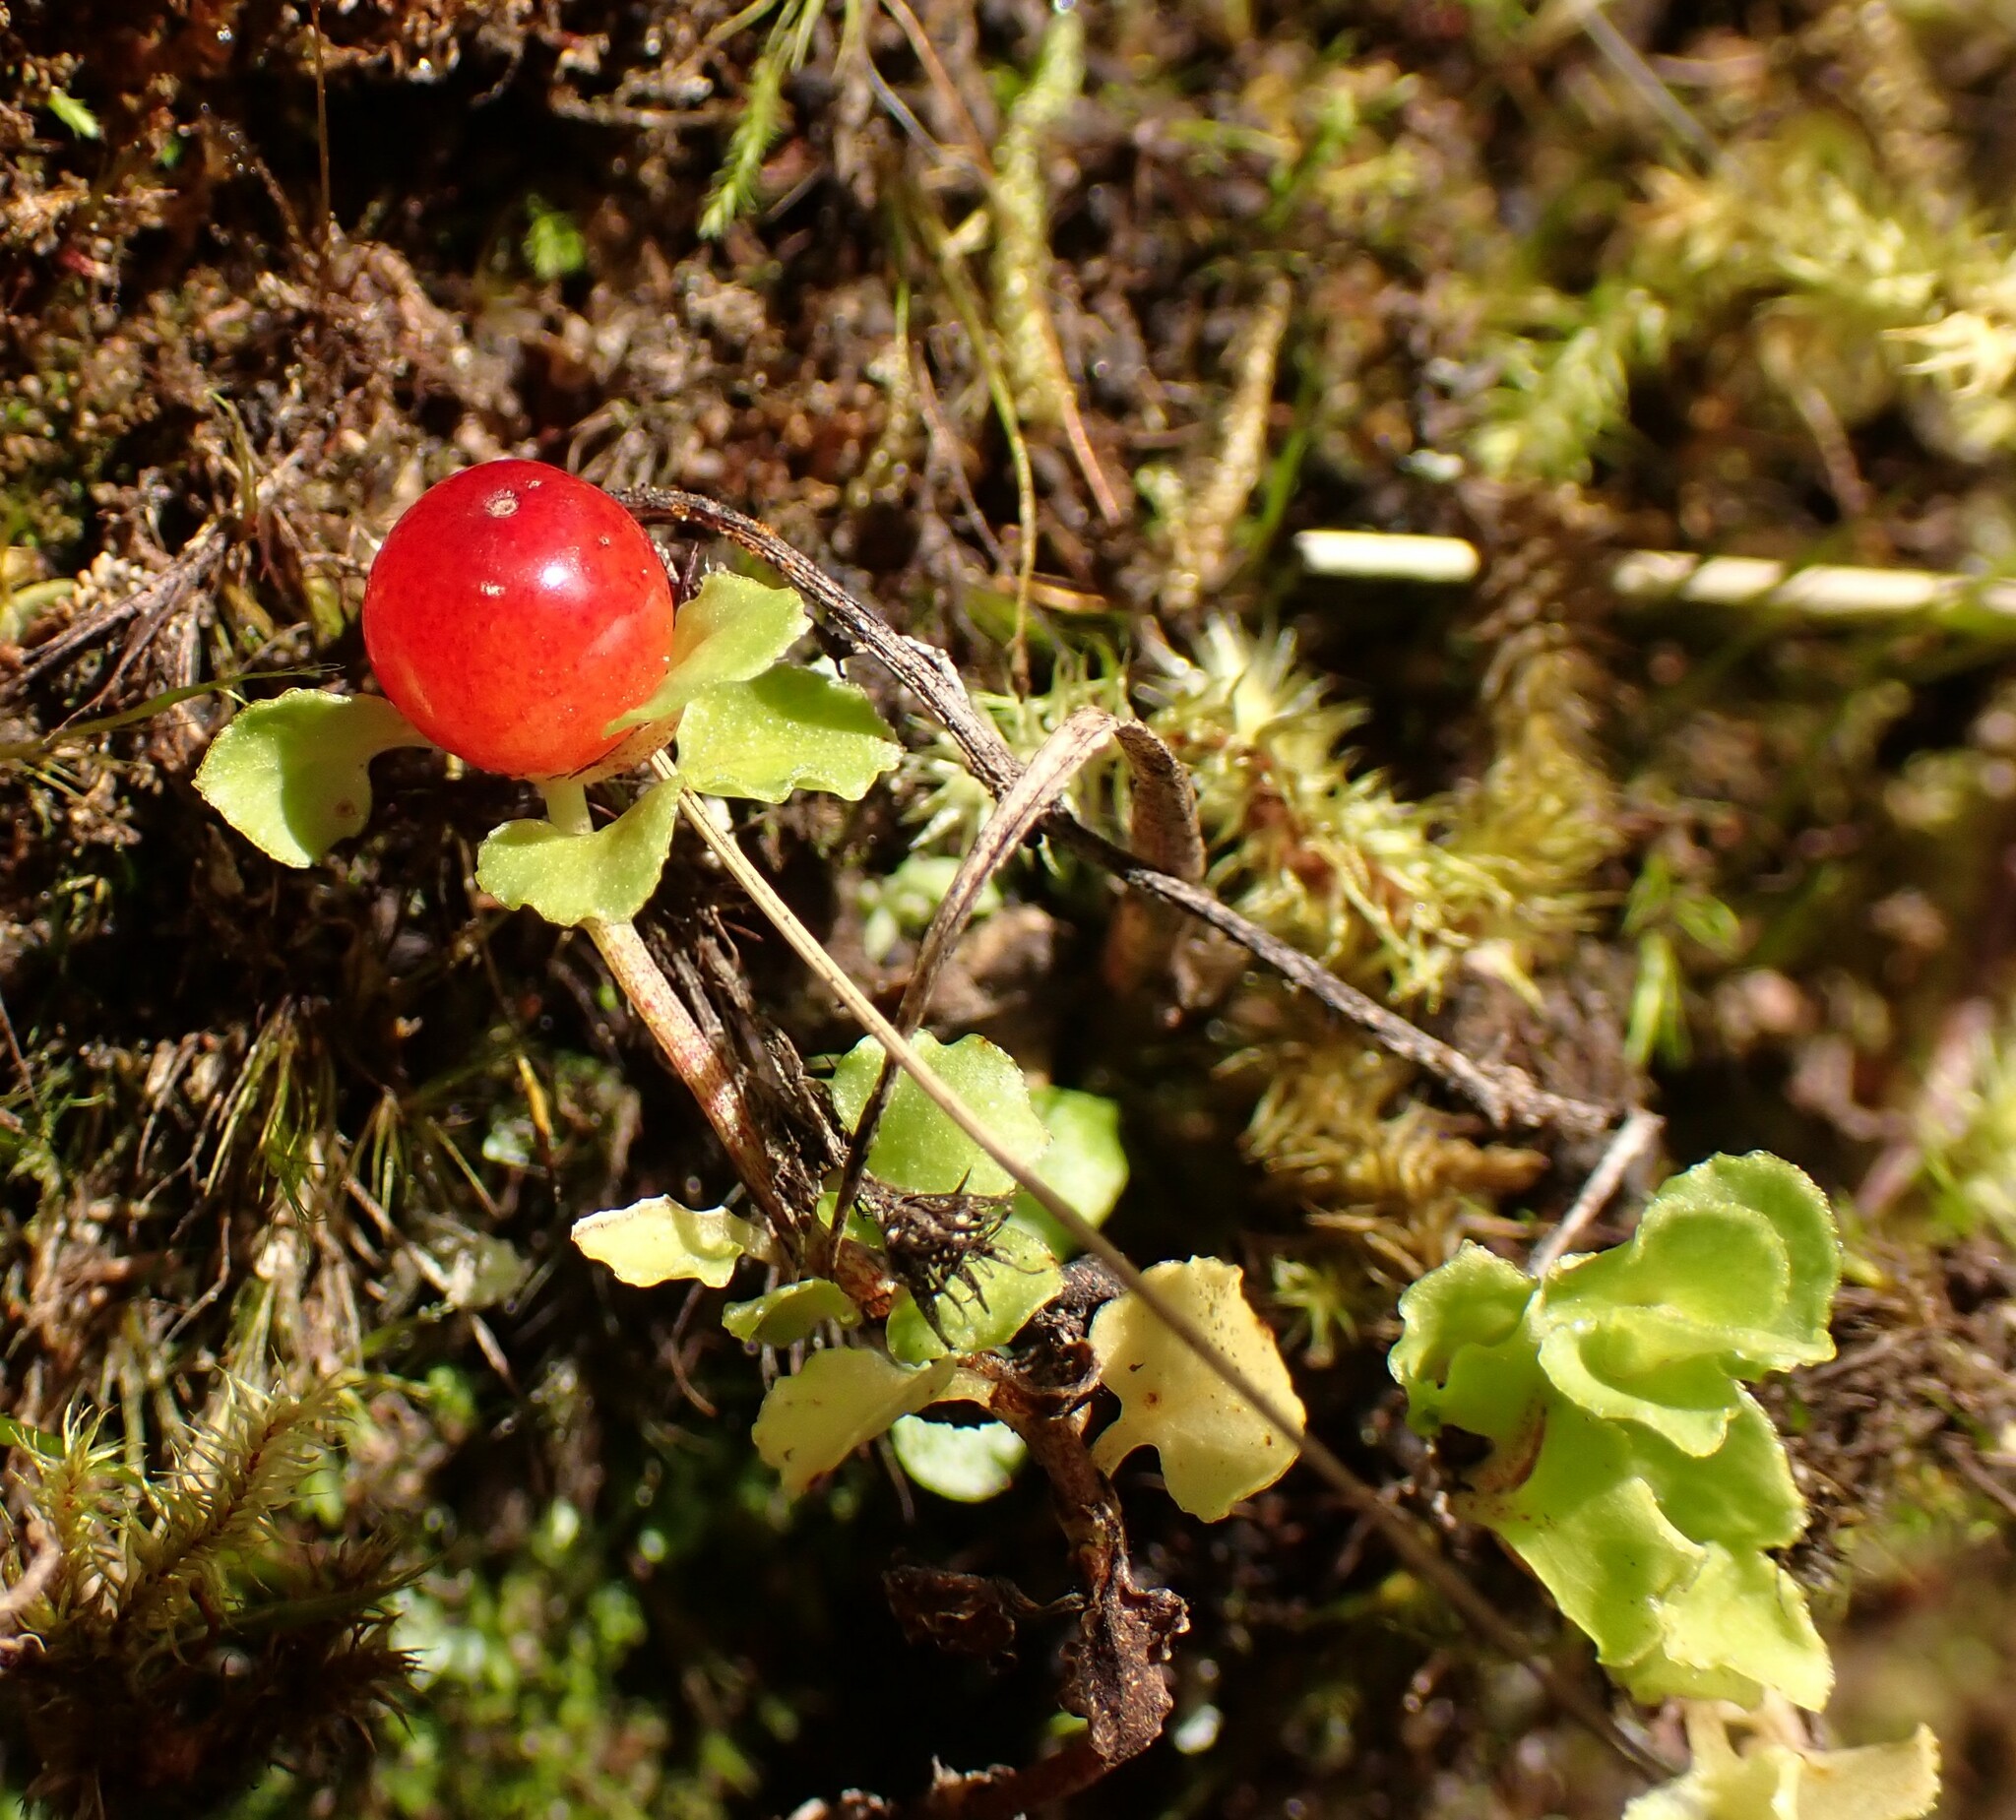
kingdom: Plantae
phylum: Tracheophyta
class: Magnoliopsida
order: Gentianales
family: Rubiaceae
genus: Nertera
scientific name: Nertera granadensis
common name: Beadplant
